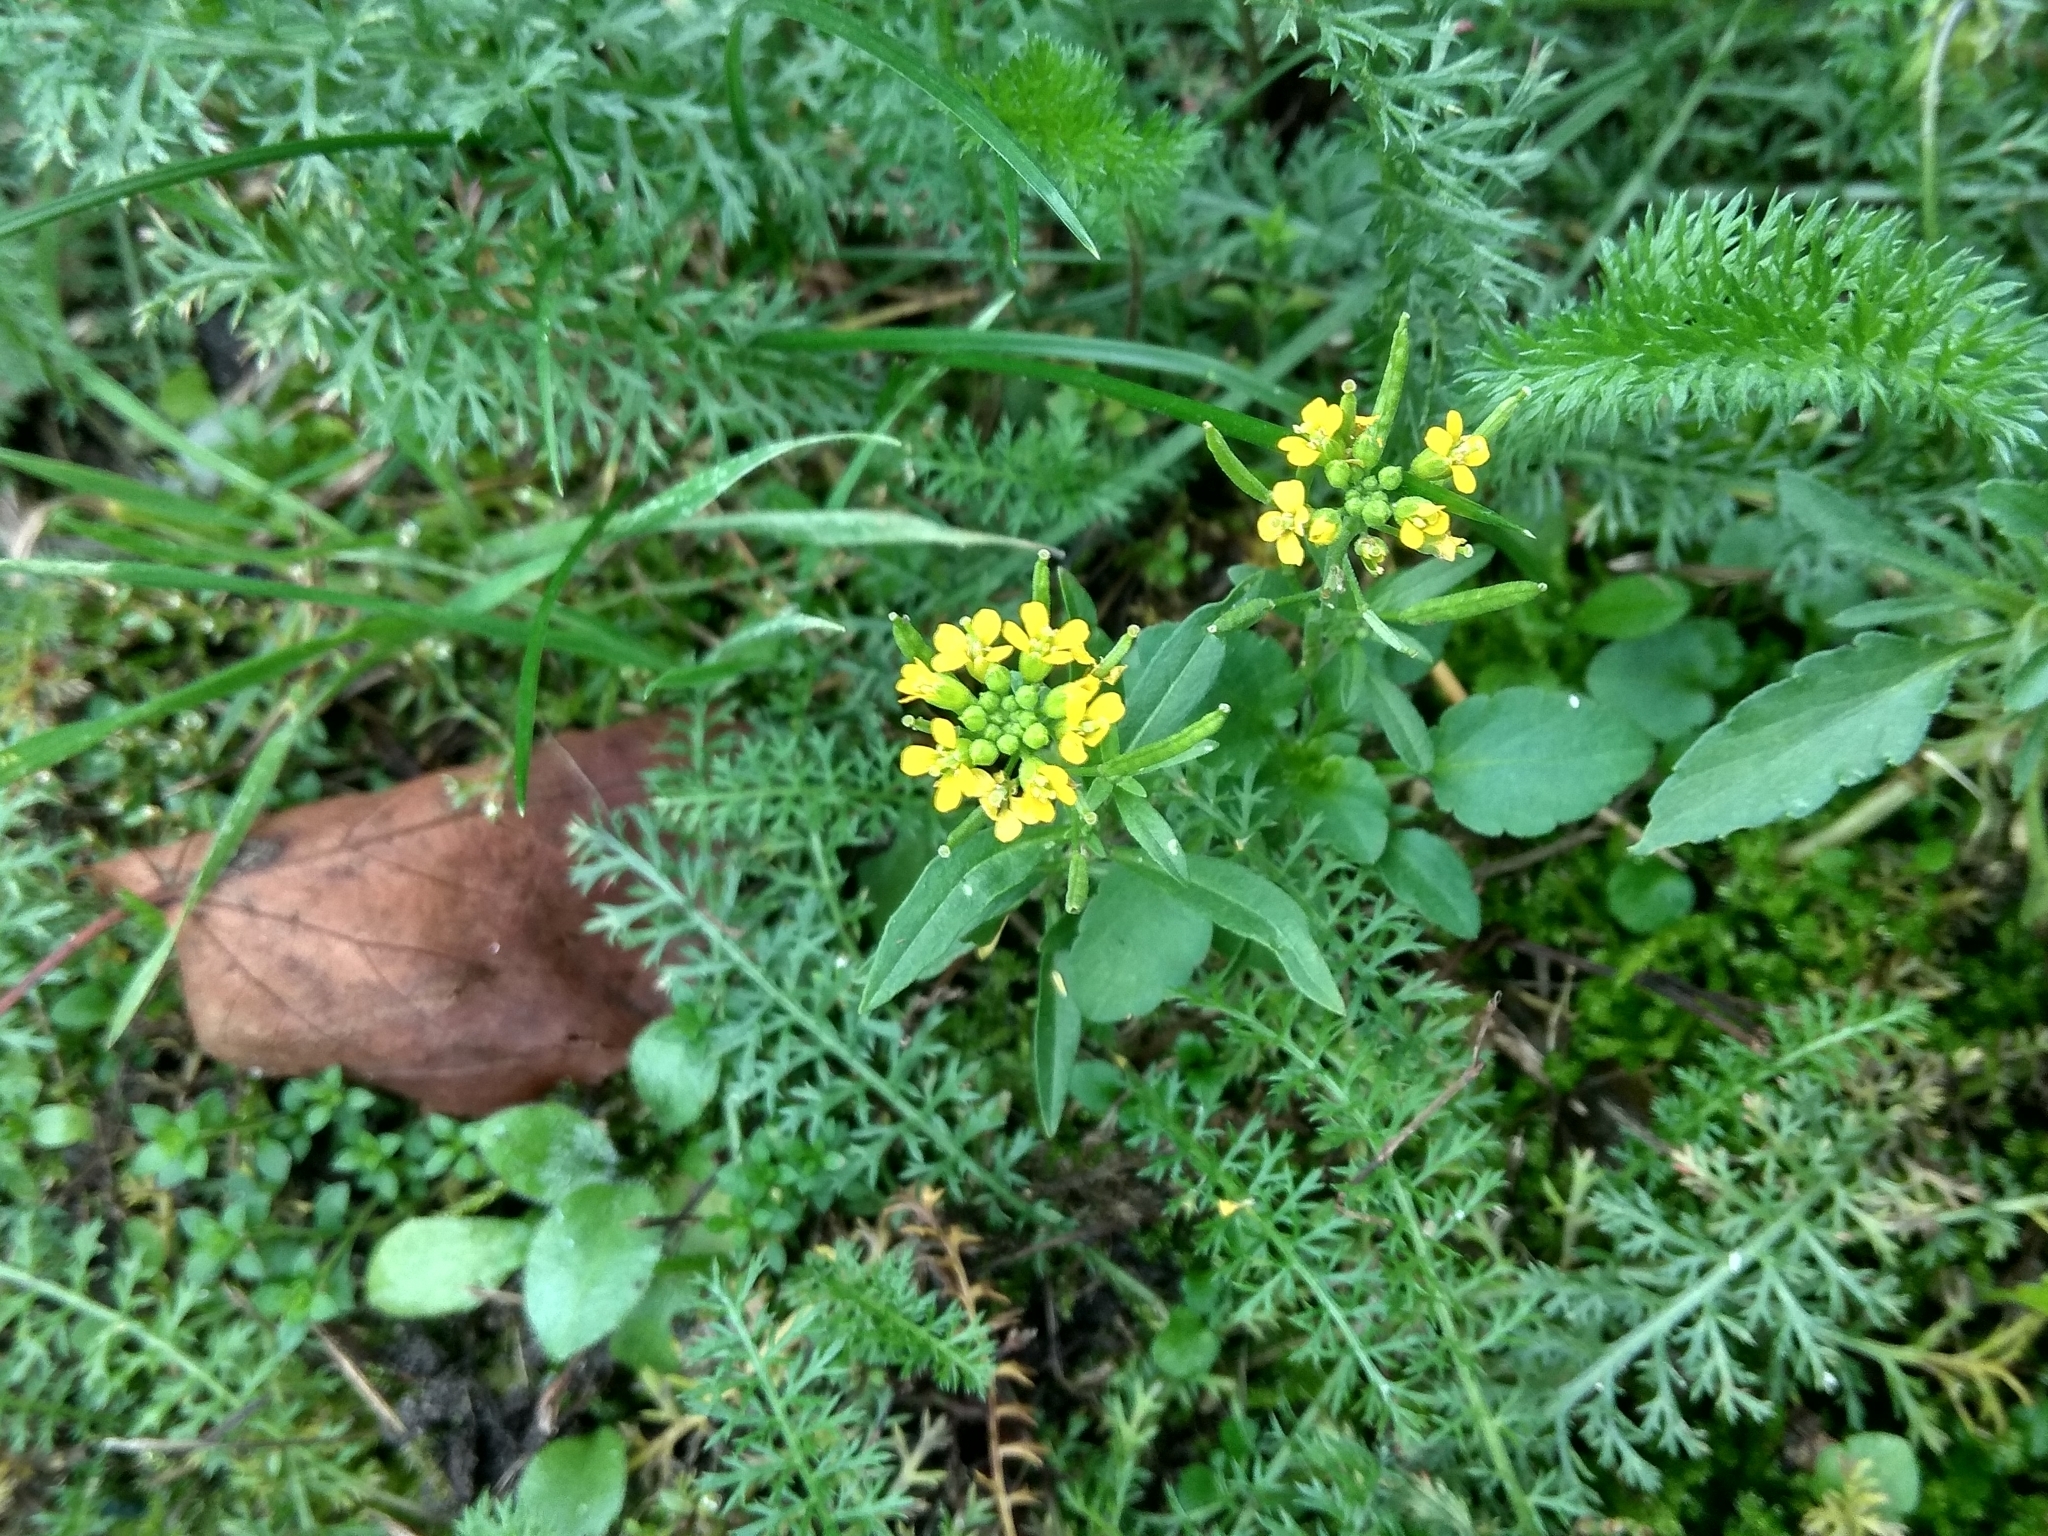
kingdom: Plantae
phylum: Tracheophyta
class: Magnoliopsida
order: Brassicales
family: Brassicaceae
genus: Erysimum
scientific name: Erysimum cheiranthoides
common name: Treacle mustard
